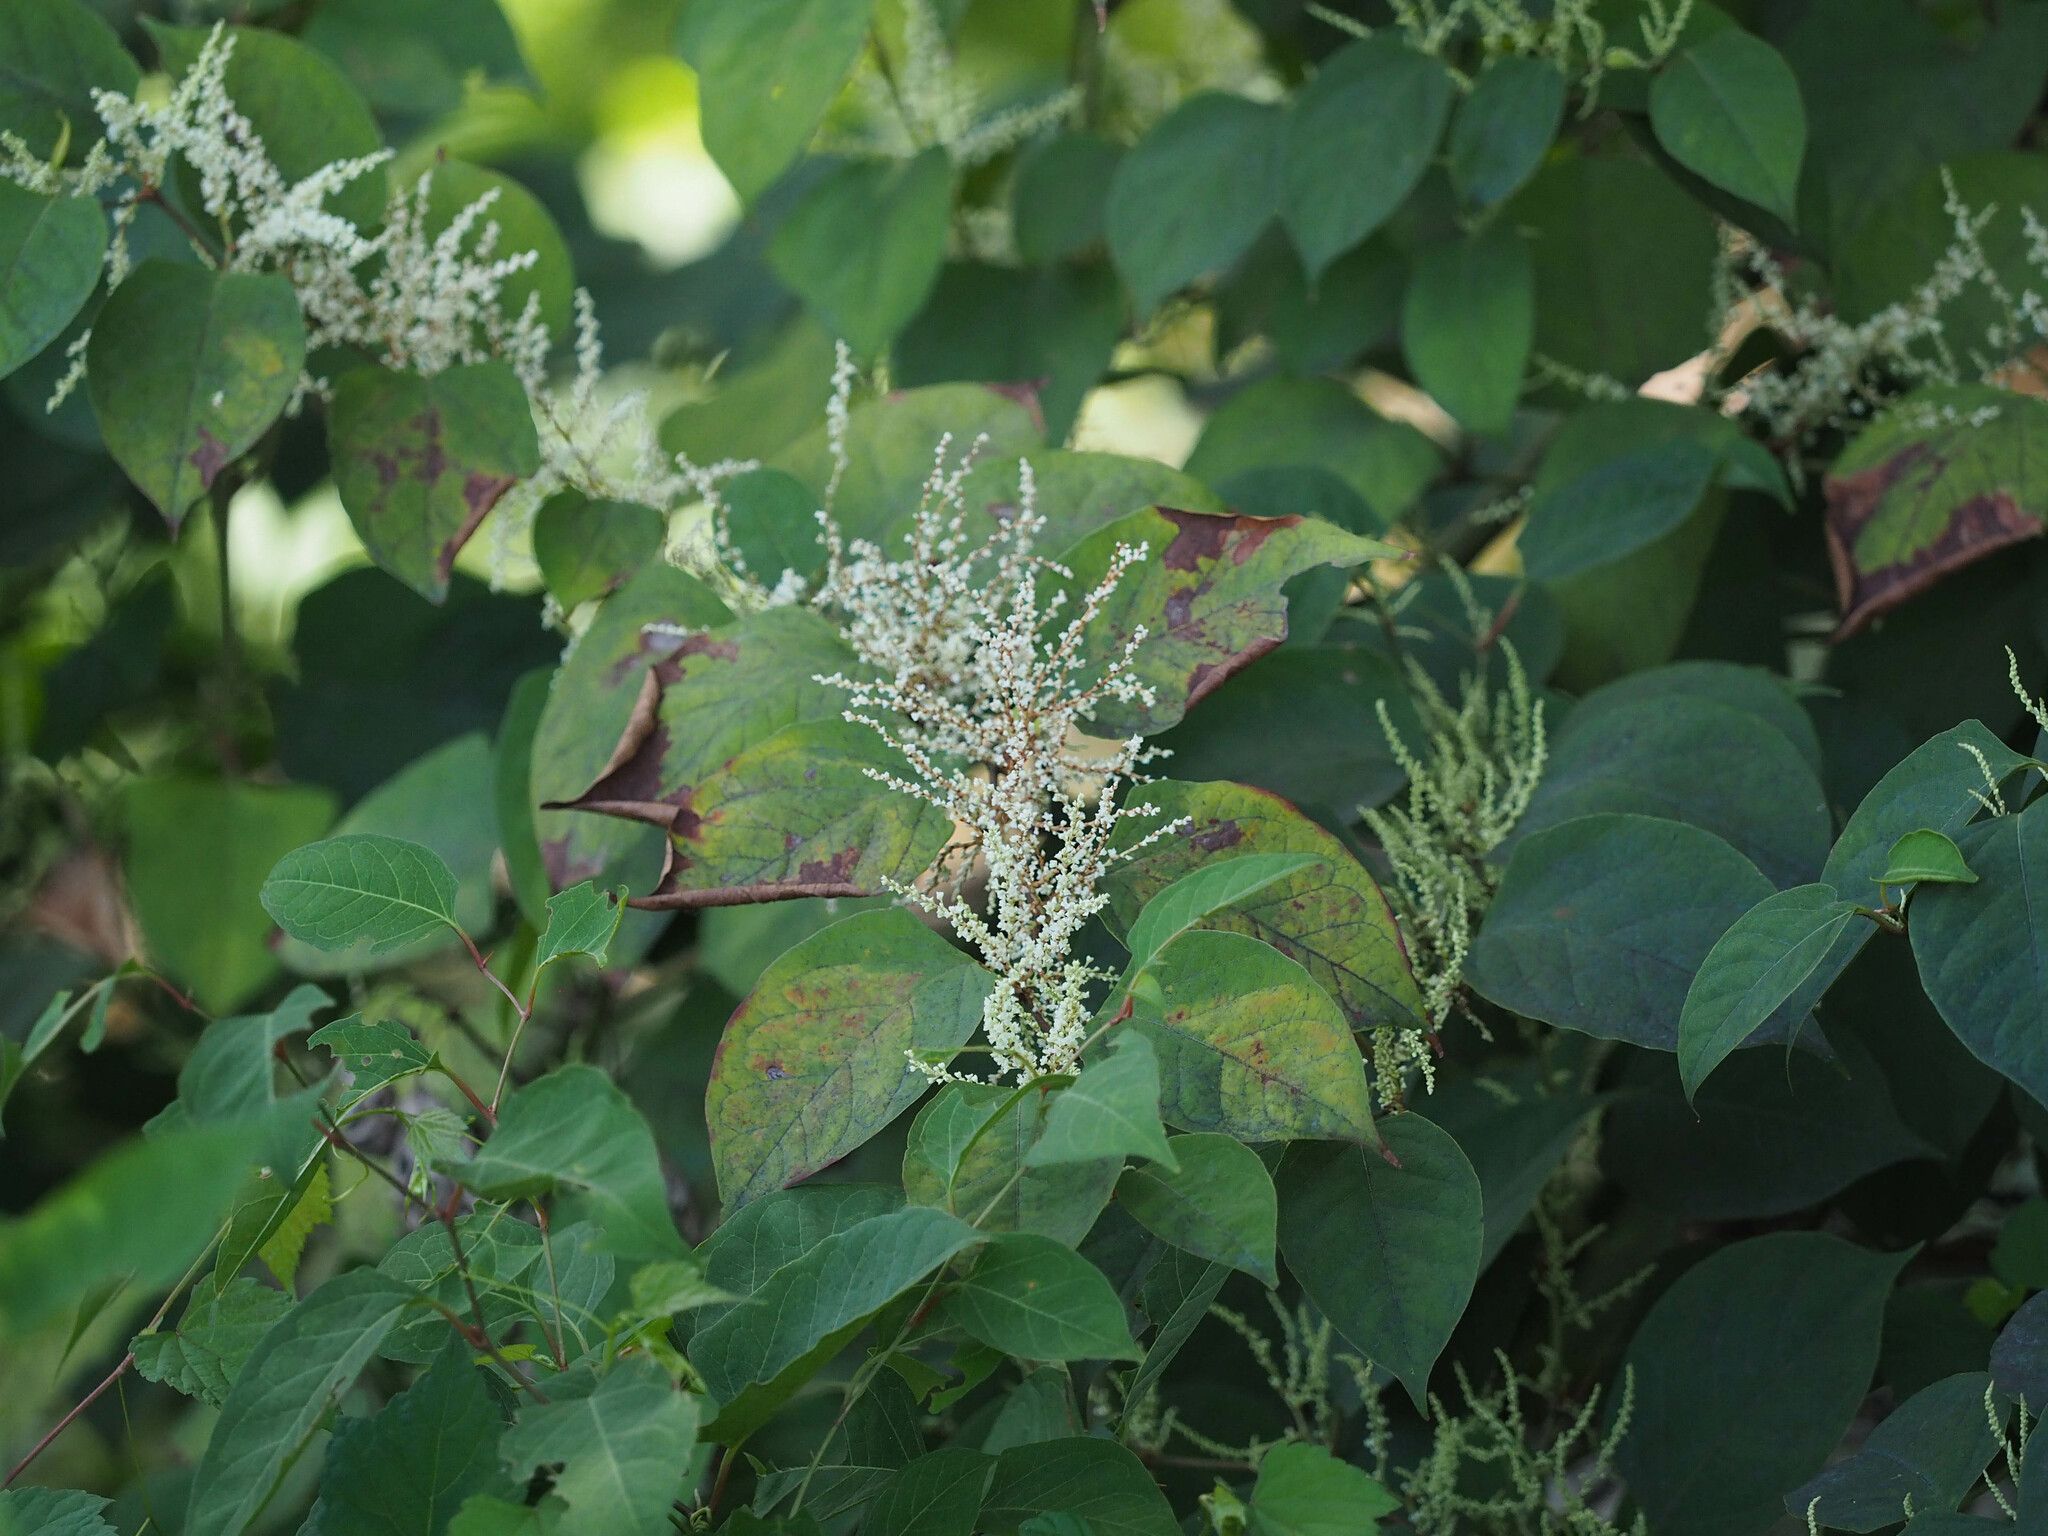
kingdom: Plantae
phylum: Tracheophyta
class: Magnoliopsida
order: Caryophyllales
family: Polygonaceae
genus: Reynoutria
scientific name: Reynoutria japonica
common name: Japanese knotweed
